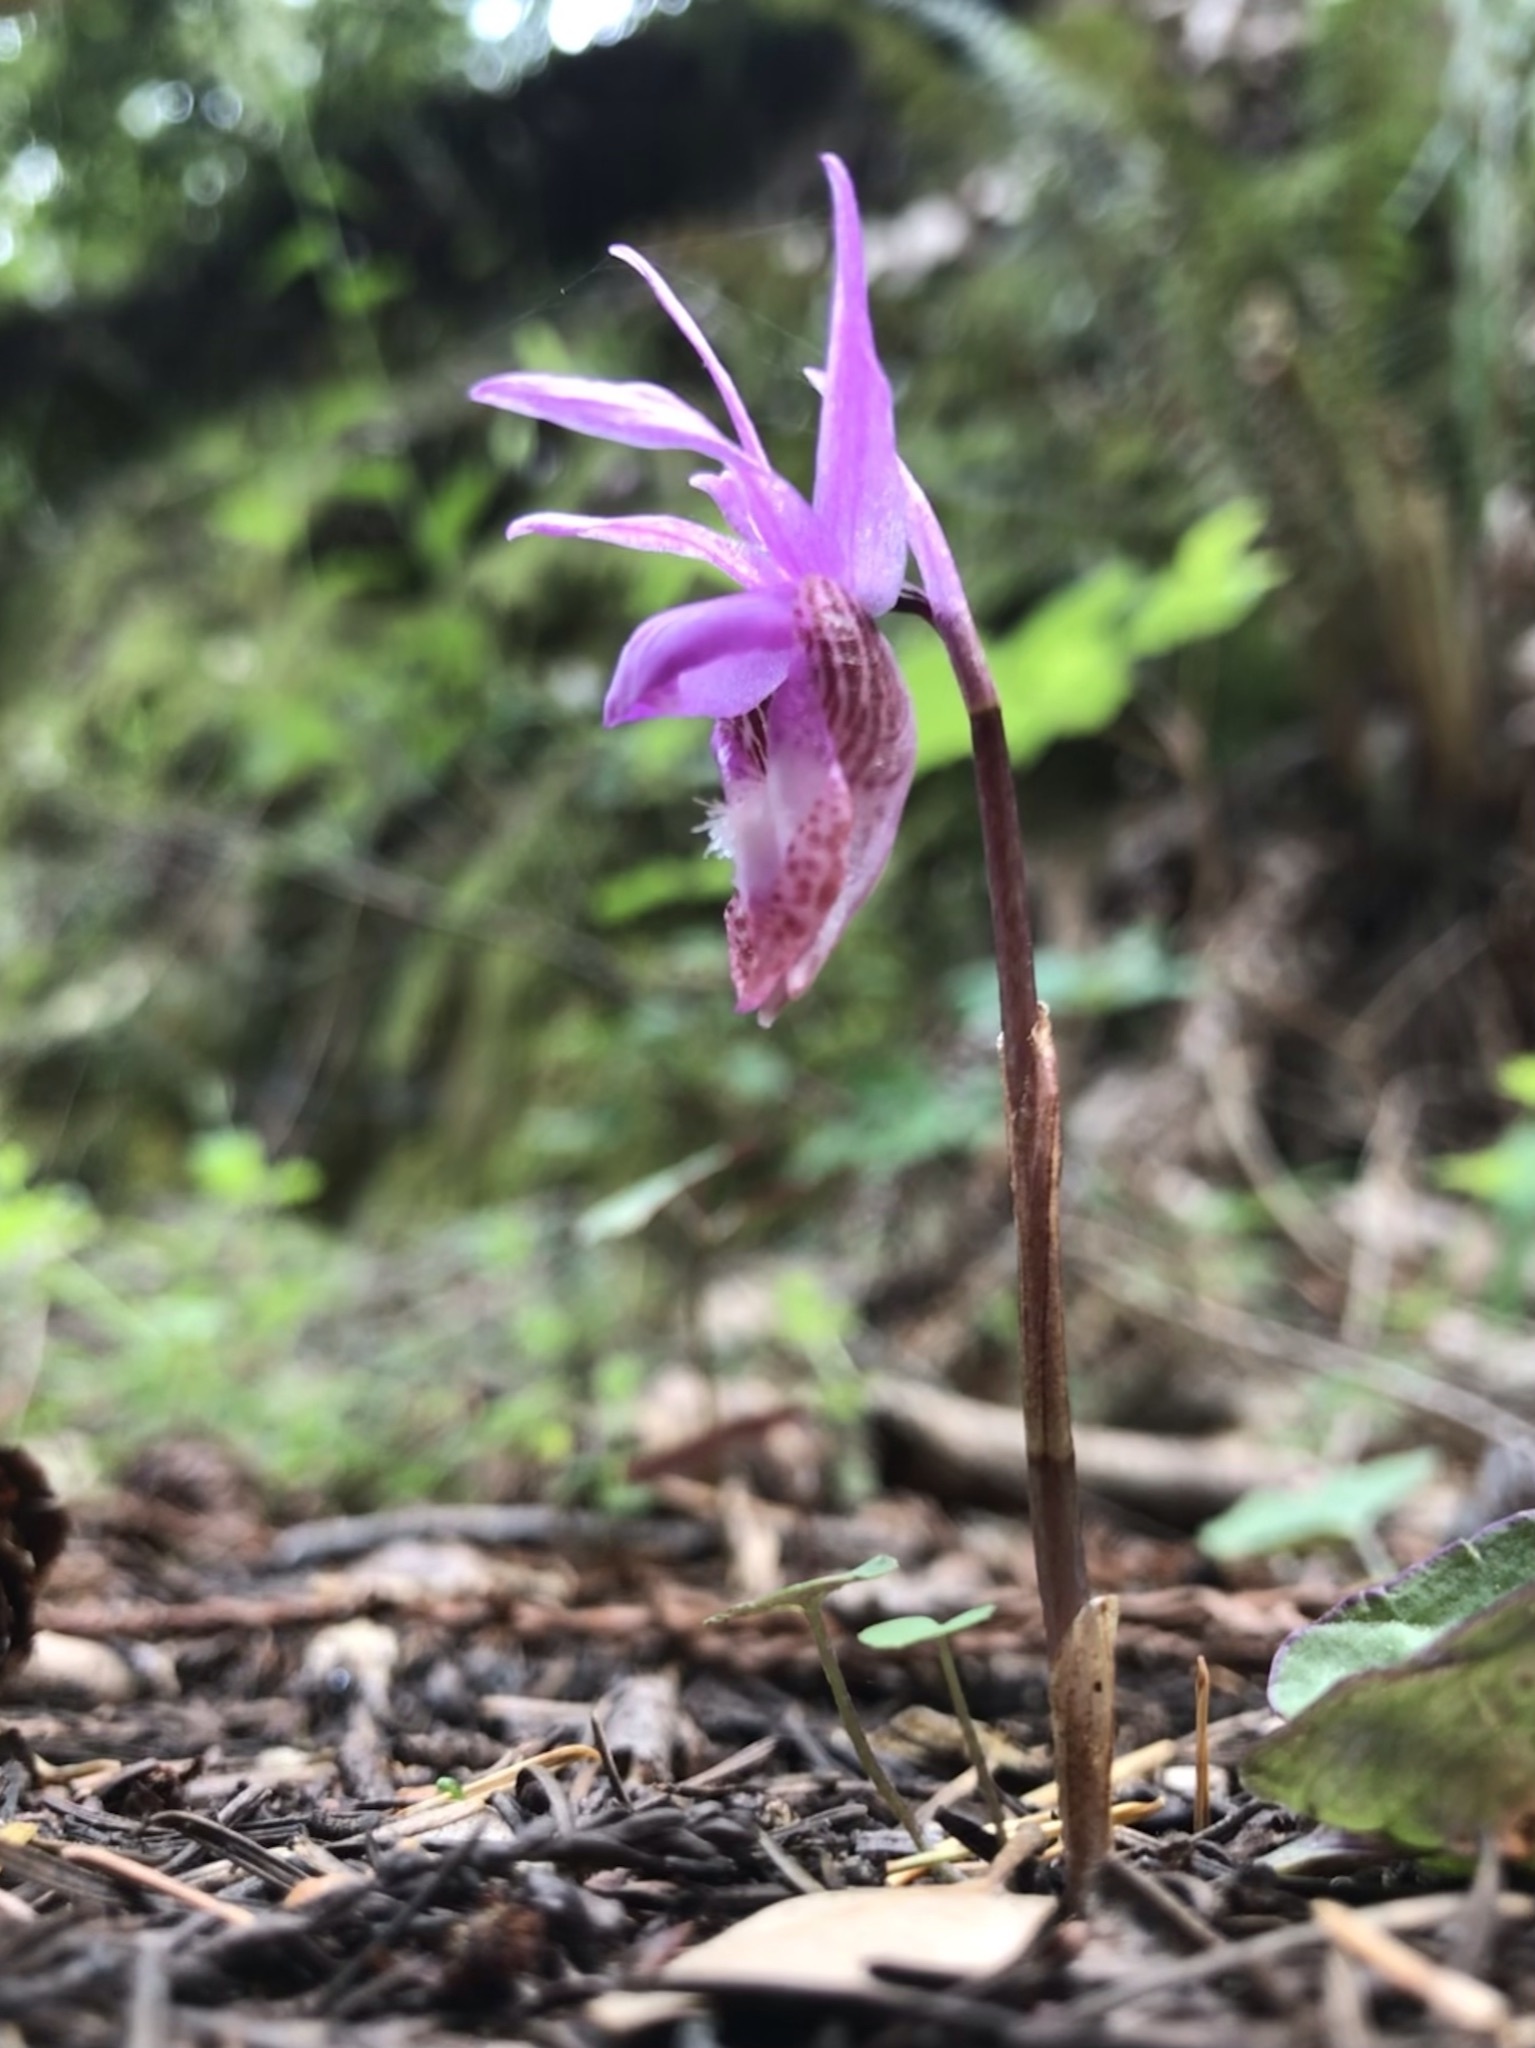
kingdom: Plantae
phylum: Tracheophyta
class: Liliopsida
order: Asparagales
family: Orchidaceae
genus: Calypso
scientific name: Calypso bulbosa
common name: Calypso
